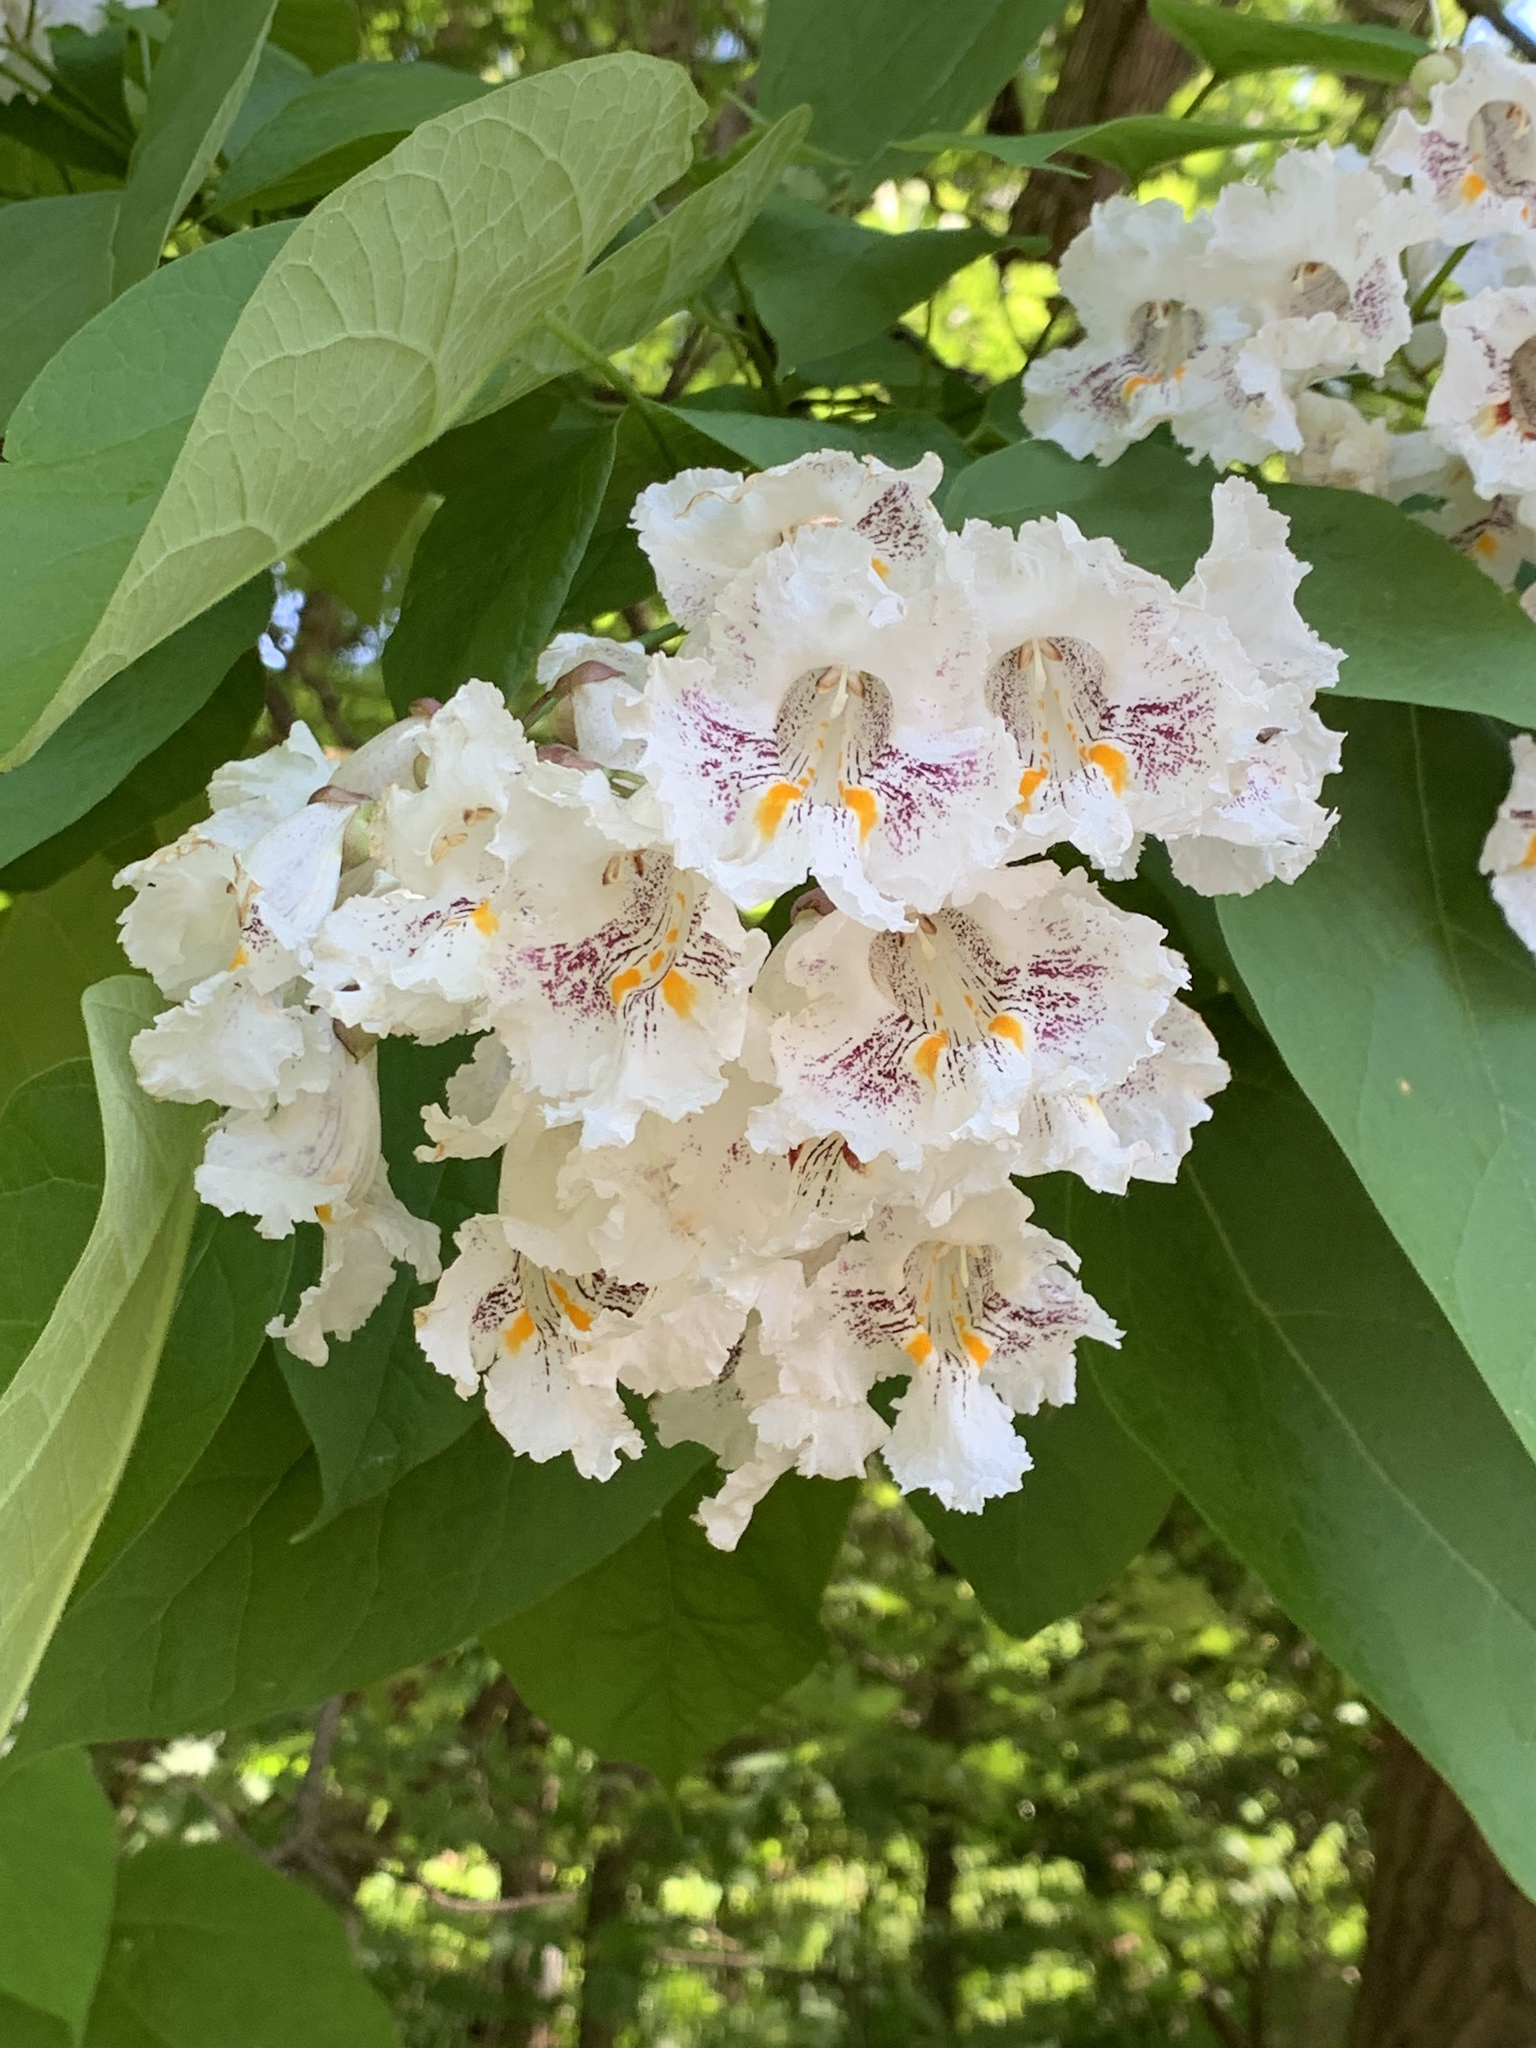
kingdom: Plantae
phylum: Tracheophyta
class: Magnoliopsida
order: Lamiales
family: Bignoniaceae
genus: Catalpa
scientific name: Catalpa speciosa
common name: Northern catalpa
